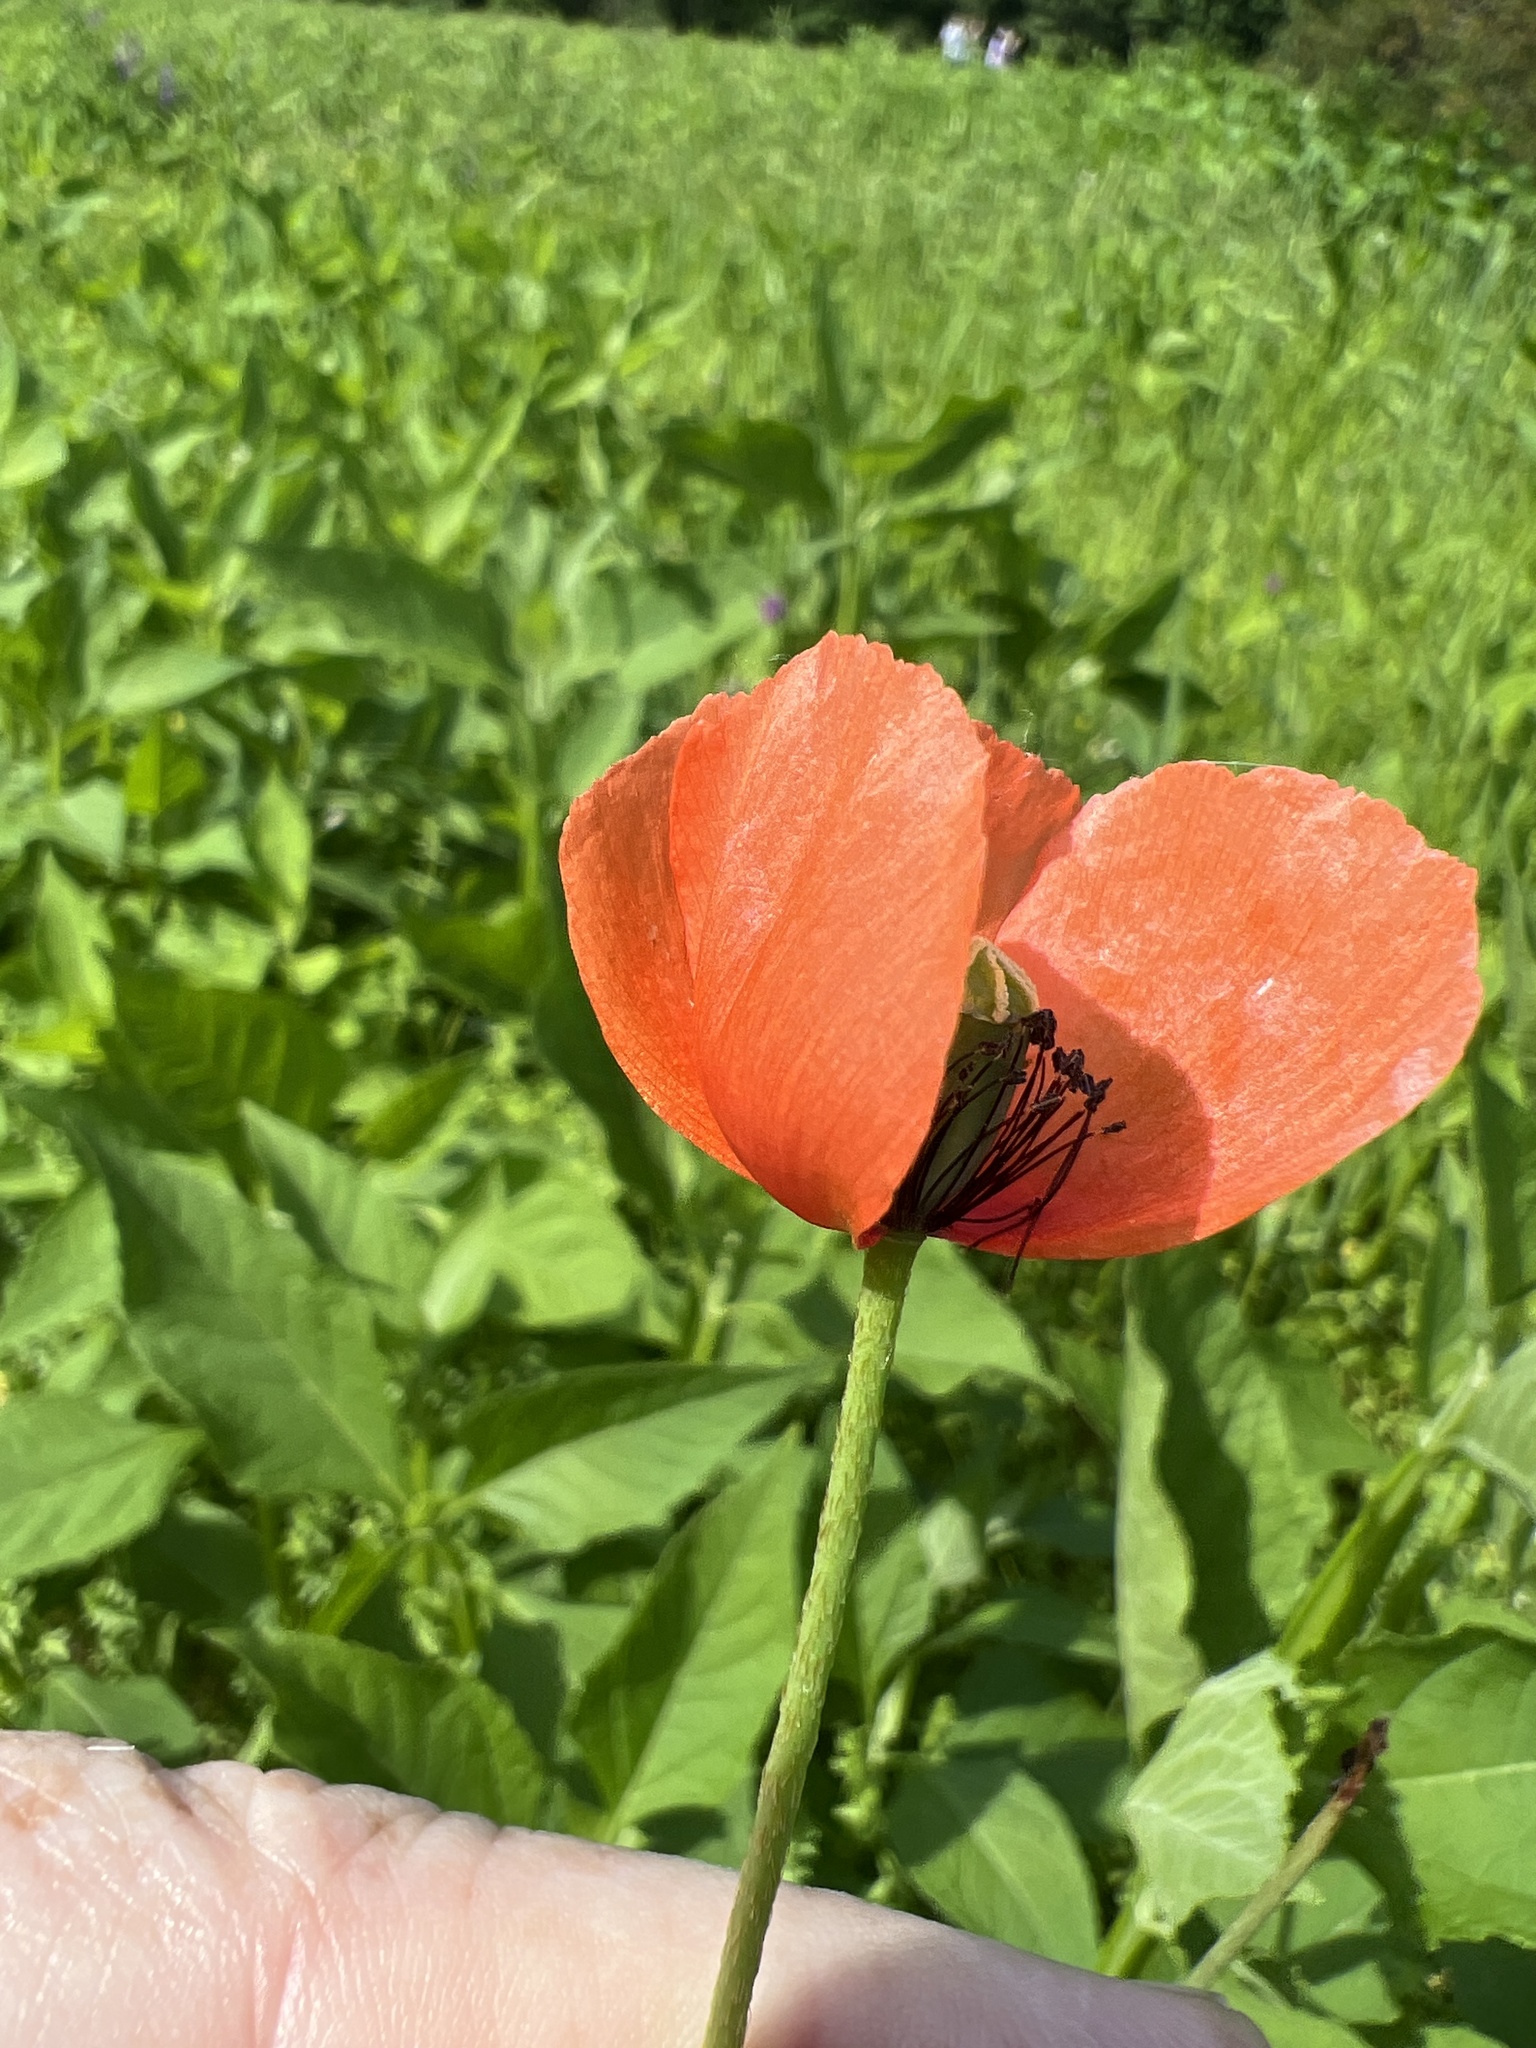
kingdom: Plantae
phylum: Tracheophyta
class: Magnoliopsida
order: Ranunculales
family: Papaveraceae
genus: Papaver
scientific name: Papaver dubium
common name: Long-headed poppy
